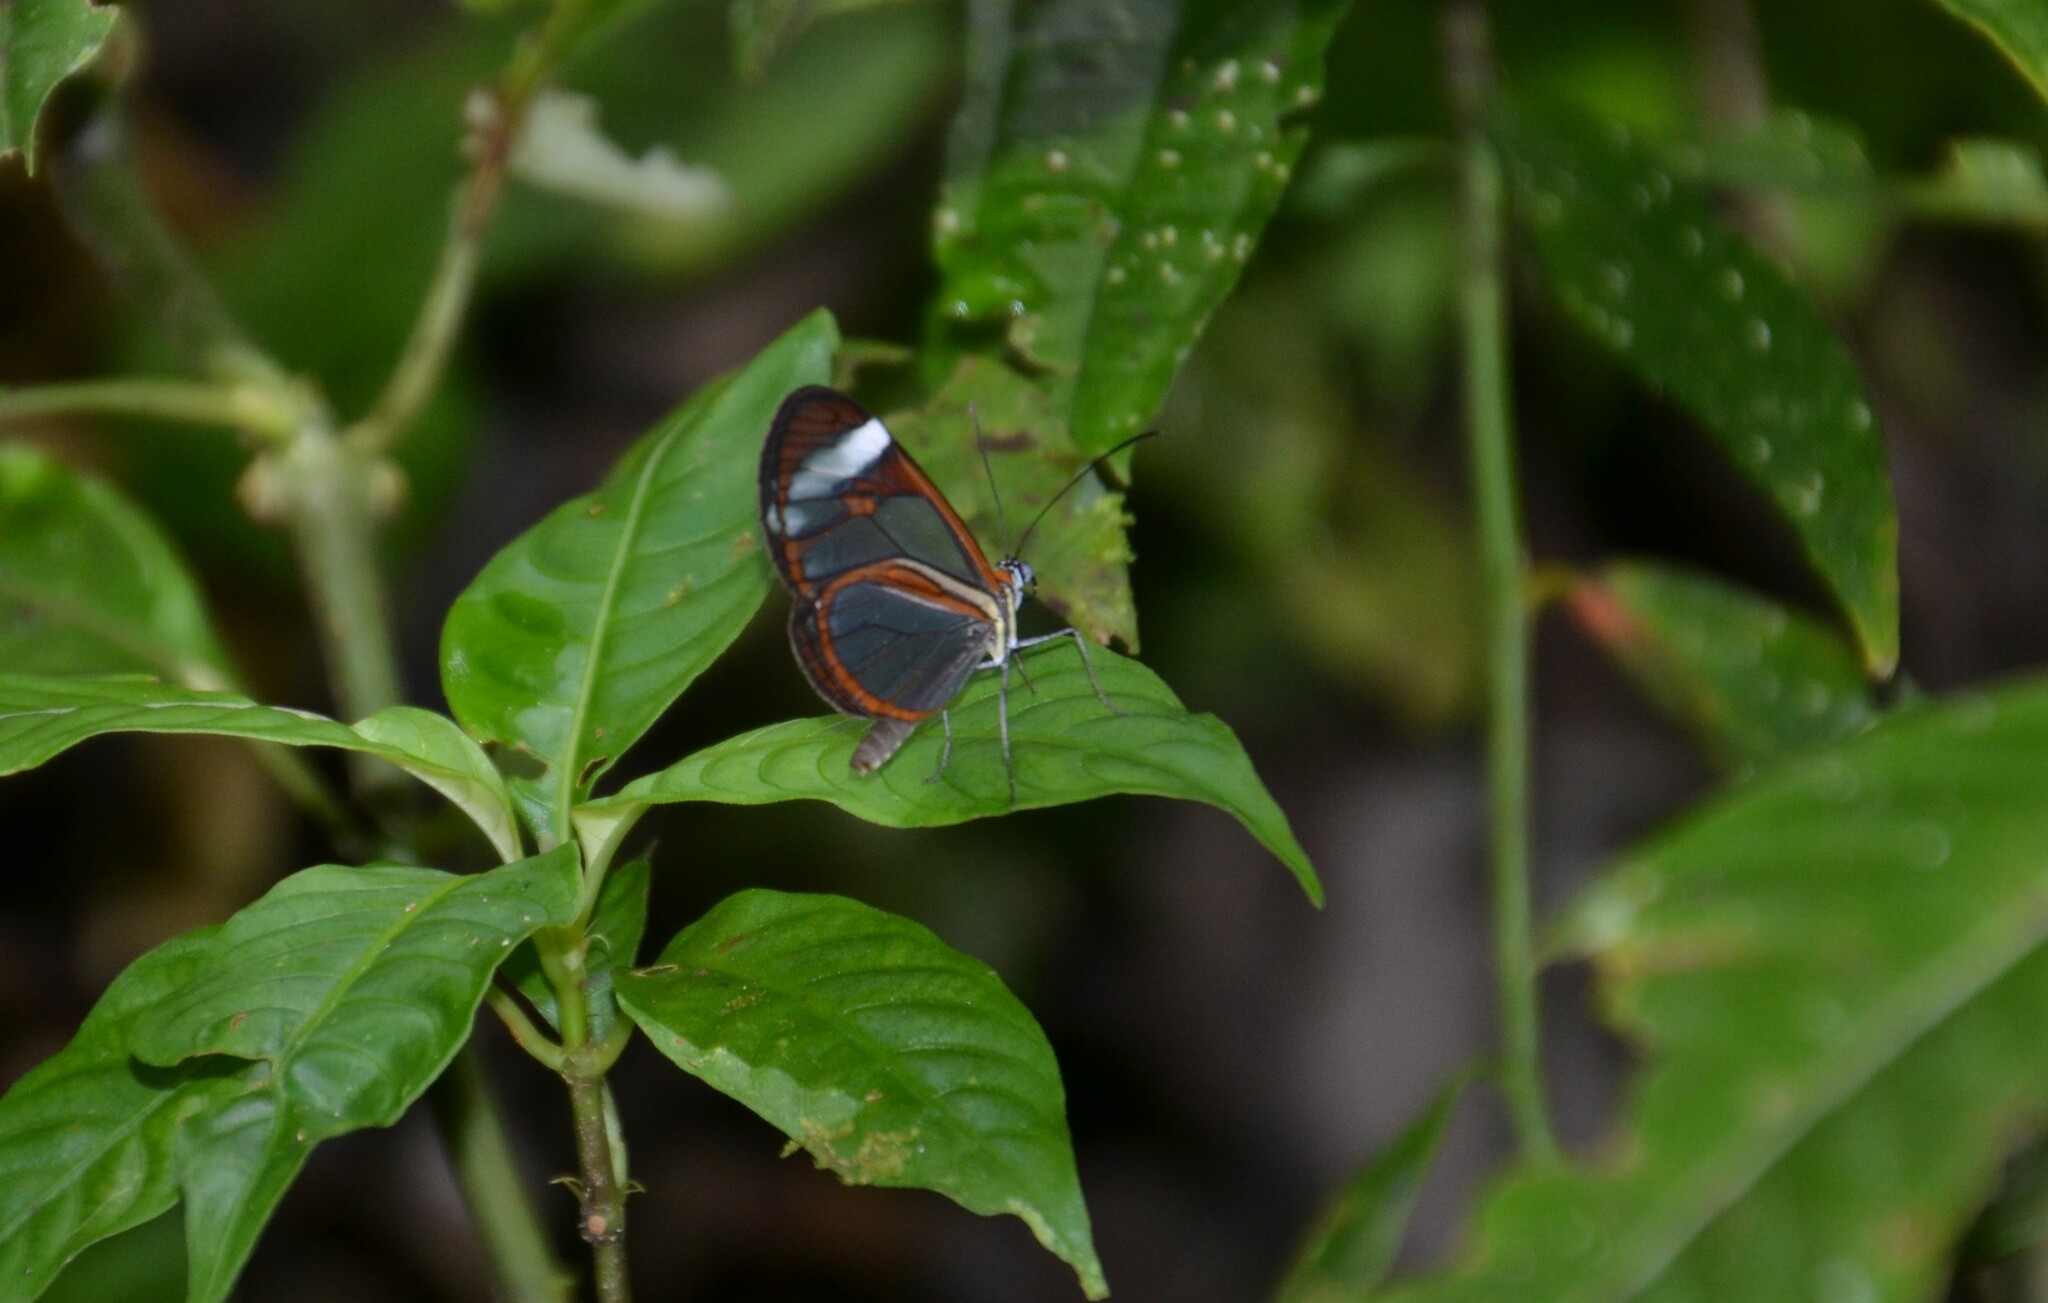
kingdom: Animalia
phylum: Arthropoda
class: Insecta
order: Lepidoptera
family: Nymphalidae
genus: Ithomia
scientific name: Ithomia patilla
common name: Patilla clearwing
